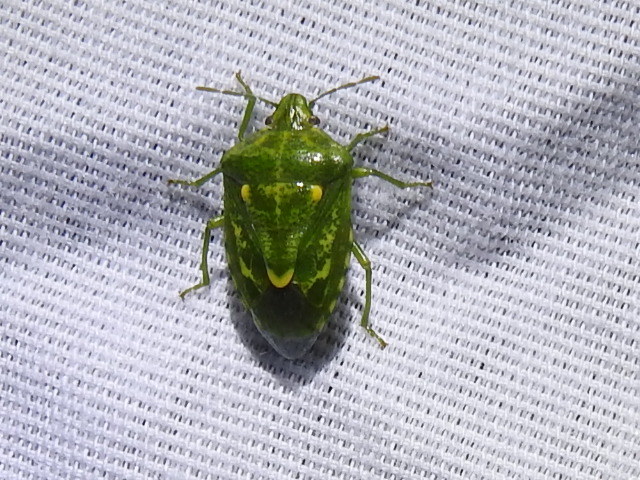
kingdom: Animalia
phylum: Arthropoda
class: Insecta
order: Hemiptera
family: Pentatomidae
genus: Banasa
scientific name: Banasa euchlora
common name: Cedar berry bug
